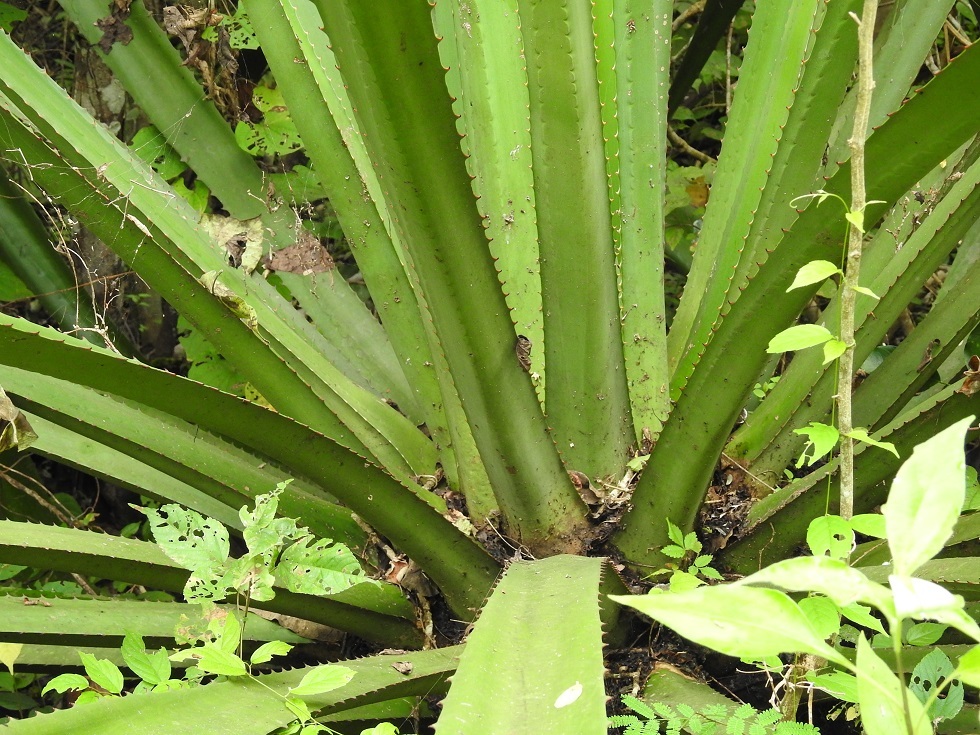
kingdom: Plantae
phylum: Tracheophyta
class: Liliopsida
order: Asparagales
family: Asparagaceae
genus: Furcraea
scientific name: Furcraea guatemalensis
